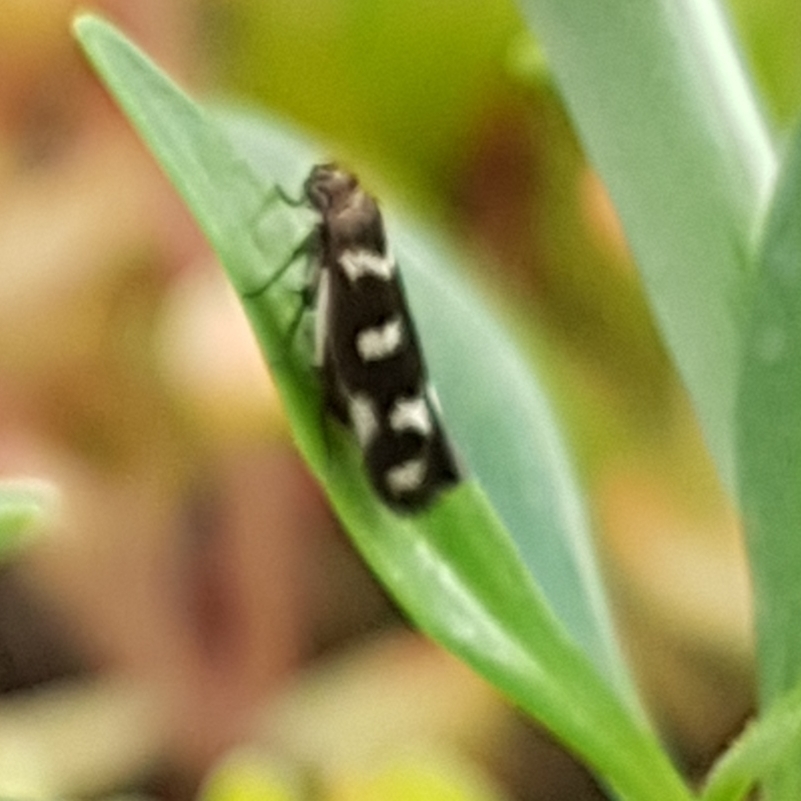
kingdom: Animalia
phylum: Arthropoda
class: Insecta
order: Lepidoptera
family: Scythrididae
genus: Scythris
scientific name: Scythris scopolella
